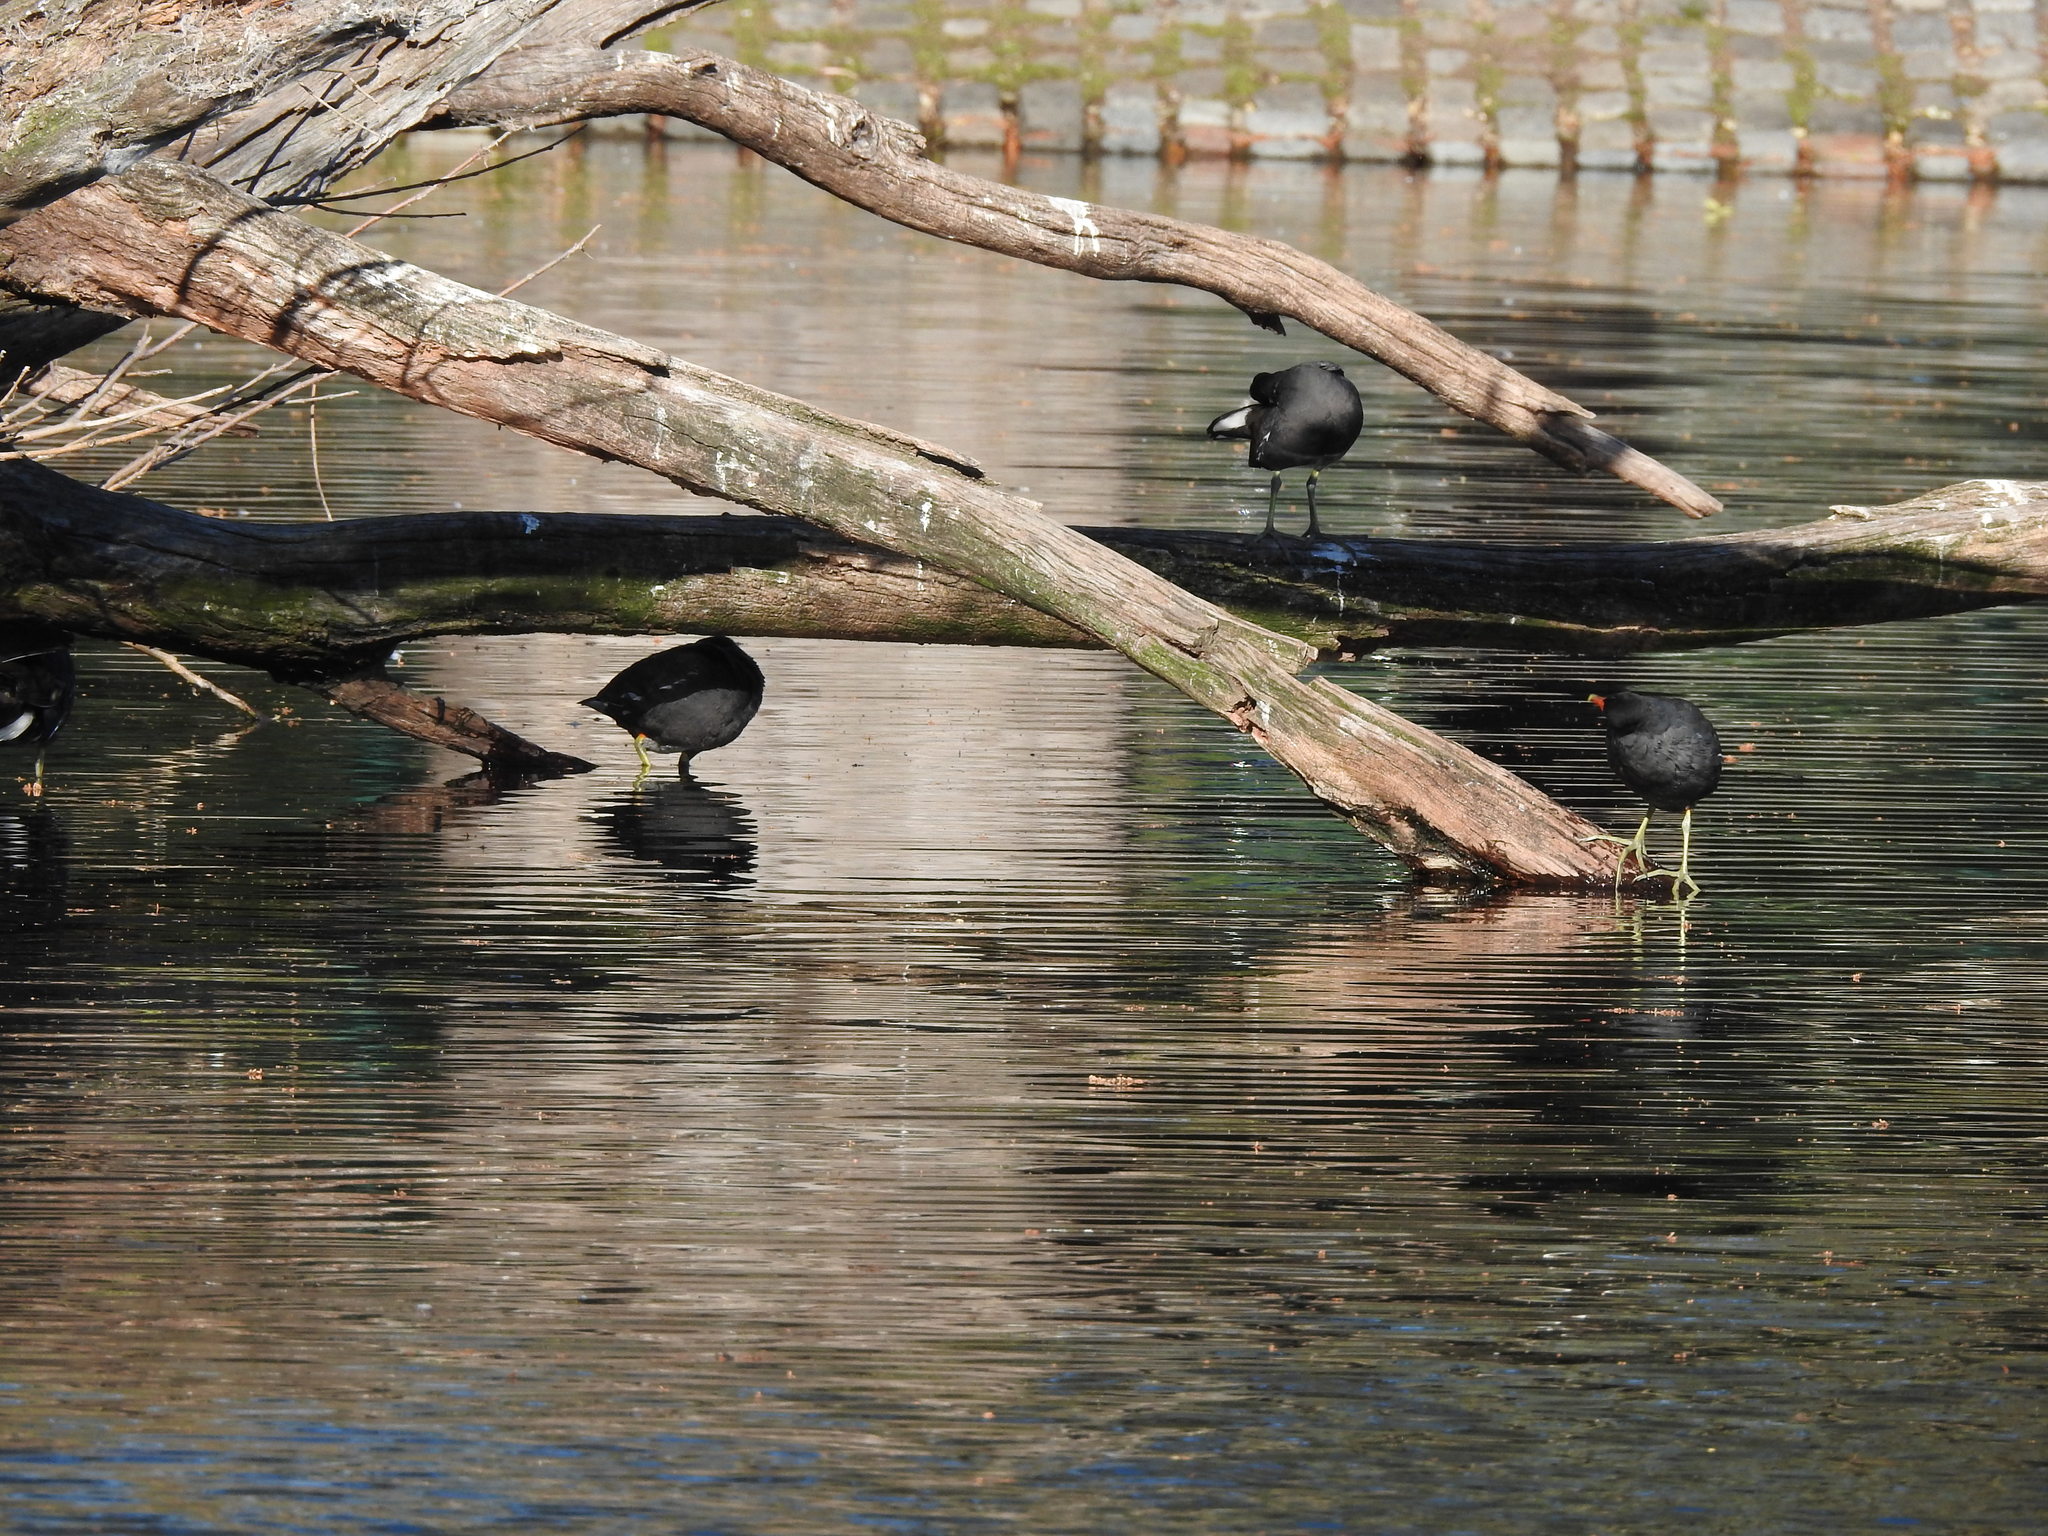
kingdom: Animalia
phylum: Chordata
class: Aves
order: Gruiformes
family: Rallidae
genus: Gallinula
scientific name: Gallinula chloropus
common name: Common moorhen
